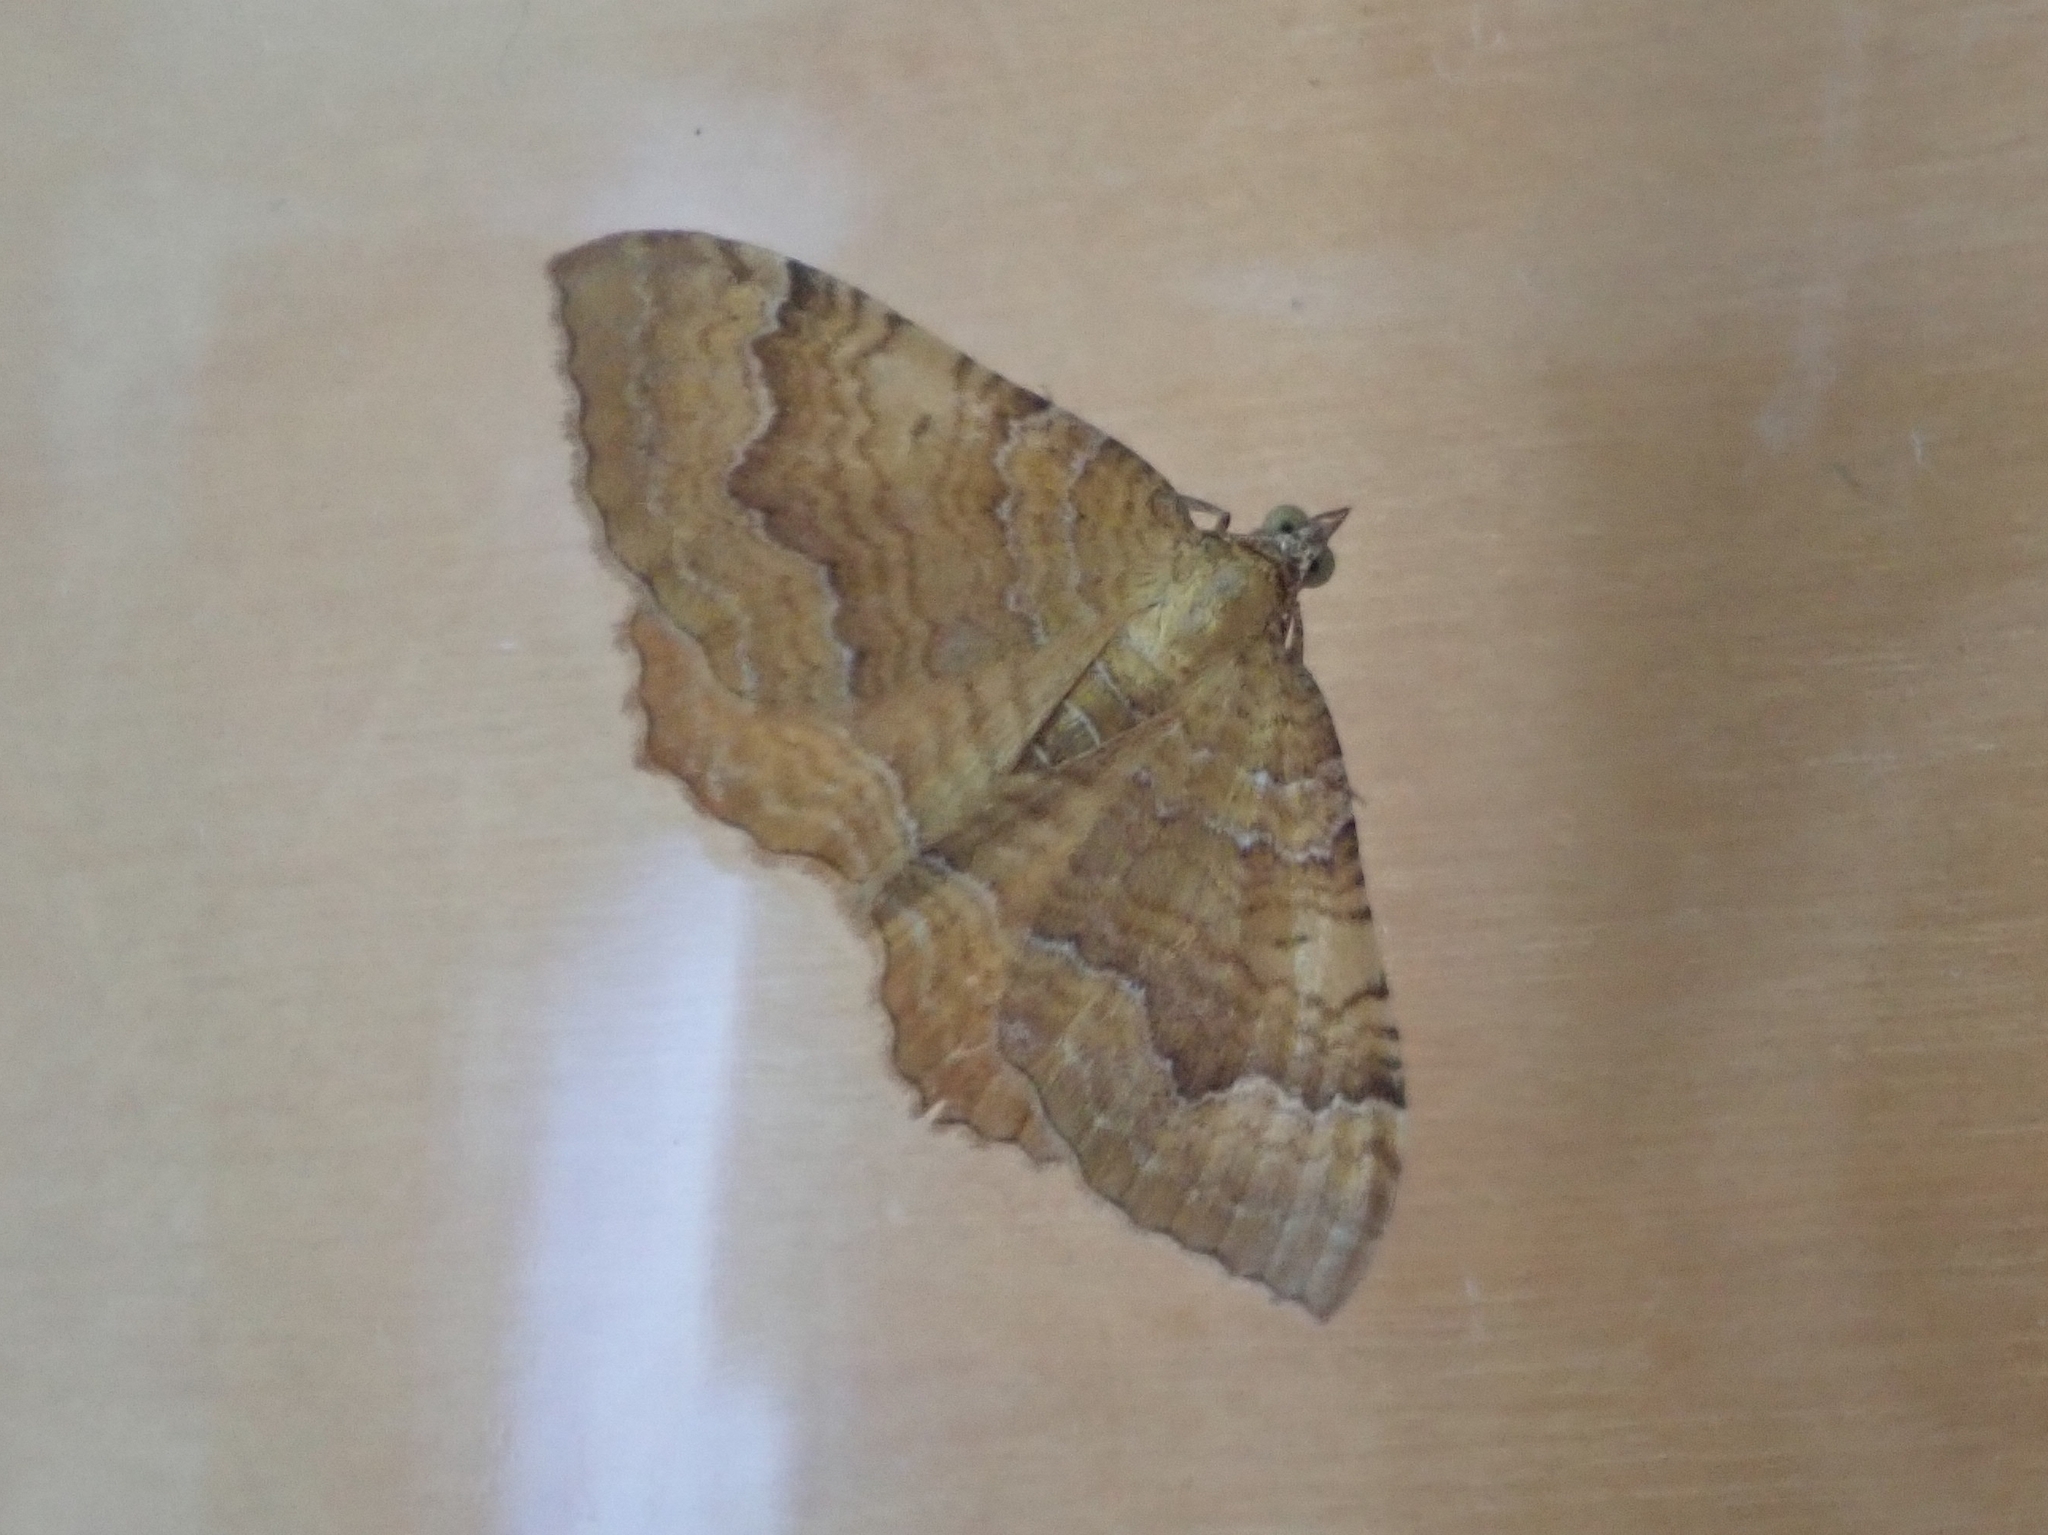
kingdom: Animalia
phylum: Arthropoda
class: Insecta
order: Lepidoptera
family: Geometridae
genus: Camptogramma
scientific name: Camptogramma bilineata
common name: Yellow shell
